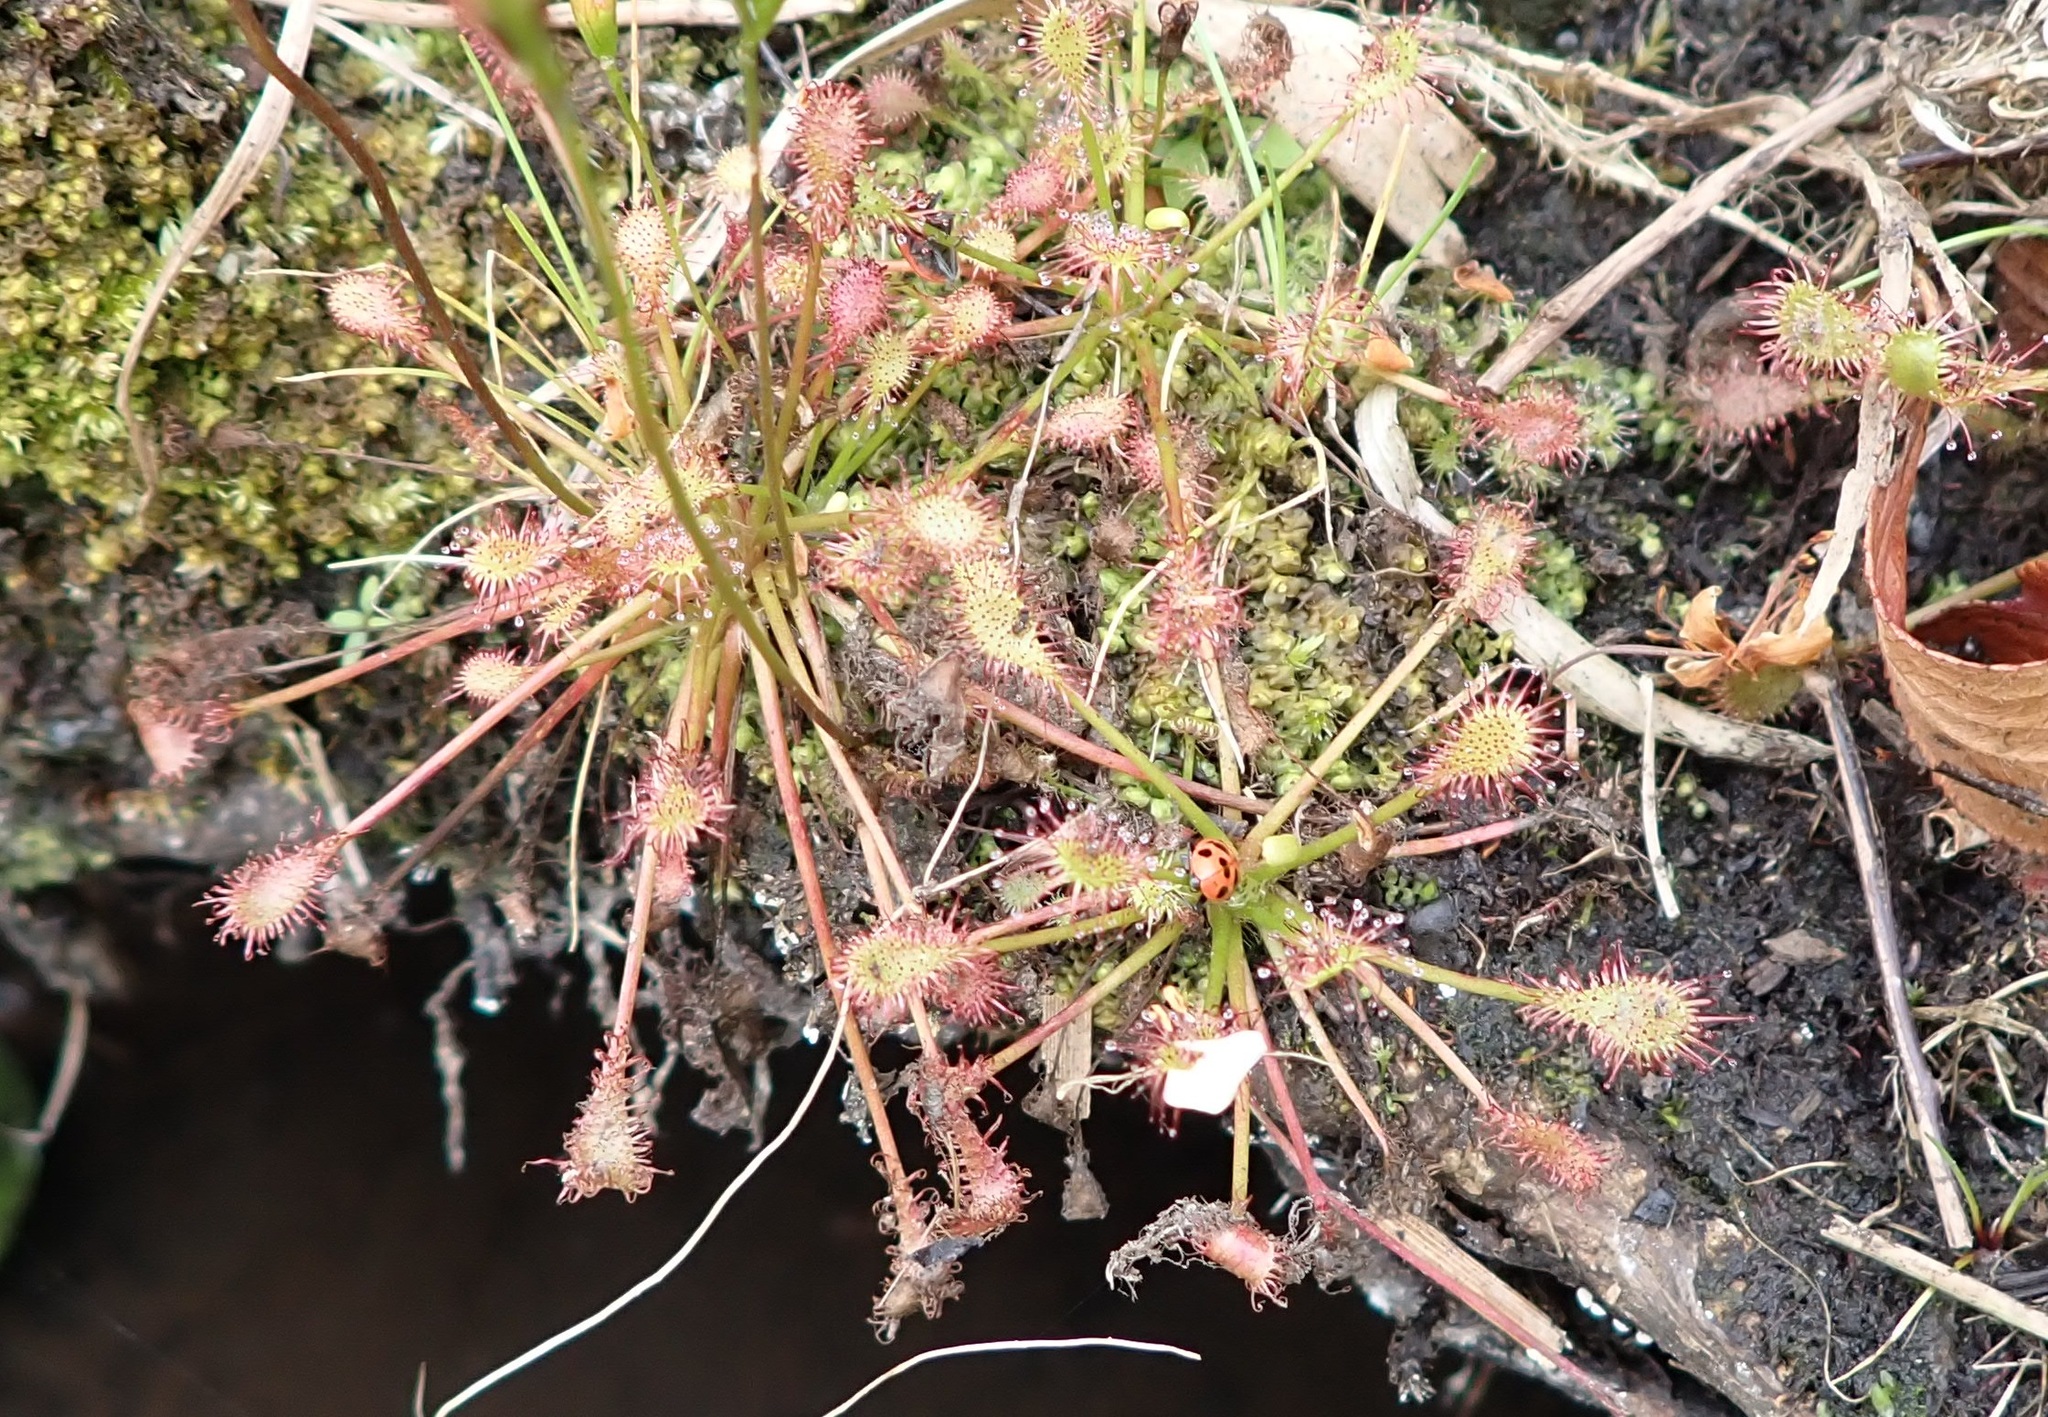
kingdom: Plantae
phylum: Tracheophyta
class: Magnoliopsida
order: Caryophyllales
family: Droseraceae
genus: Drosera
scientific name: Drosera intermedia
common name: Oblong-leaved sundew
